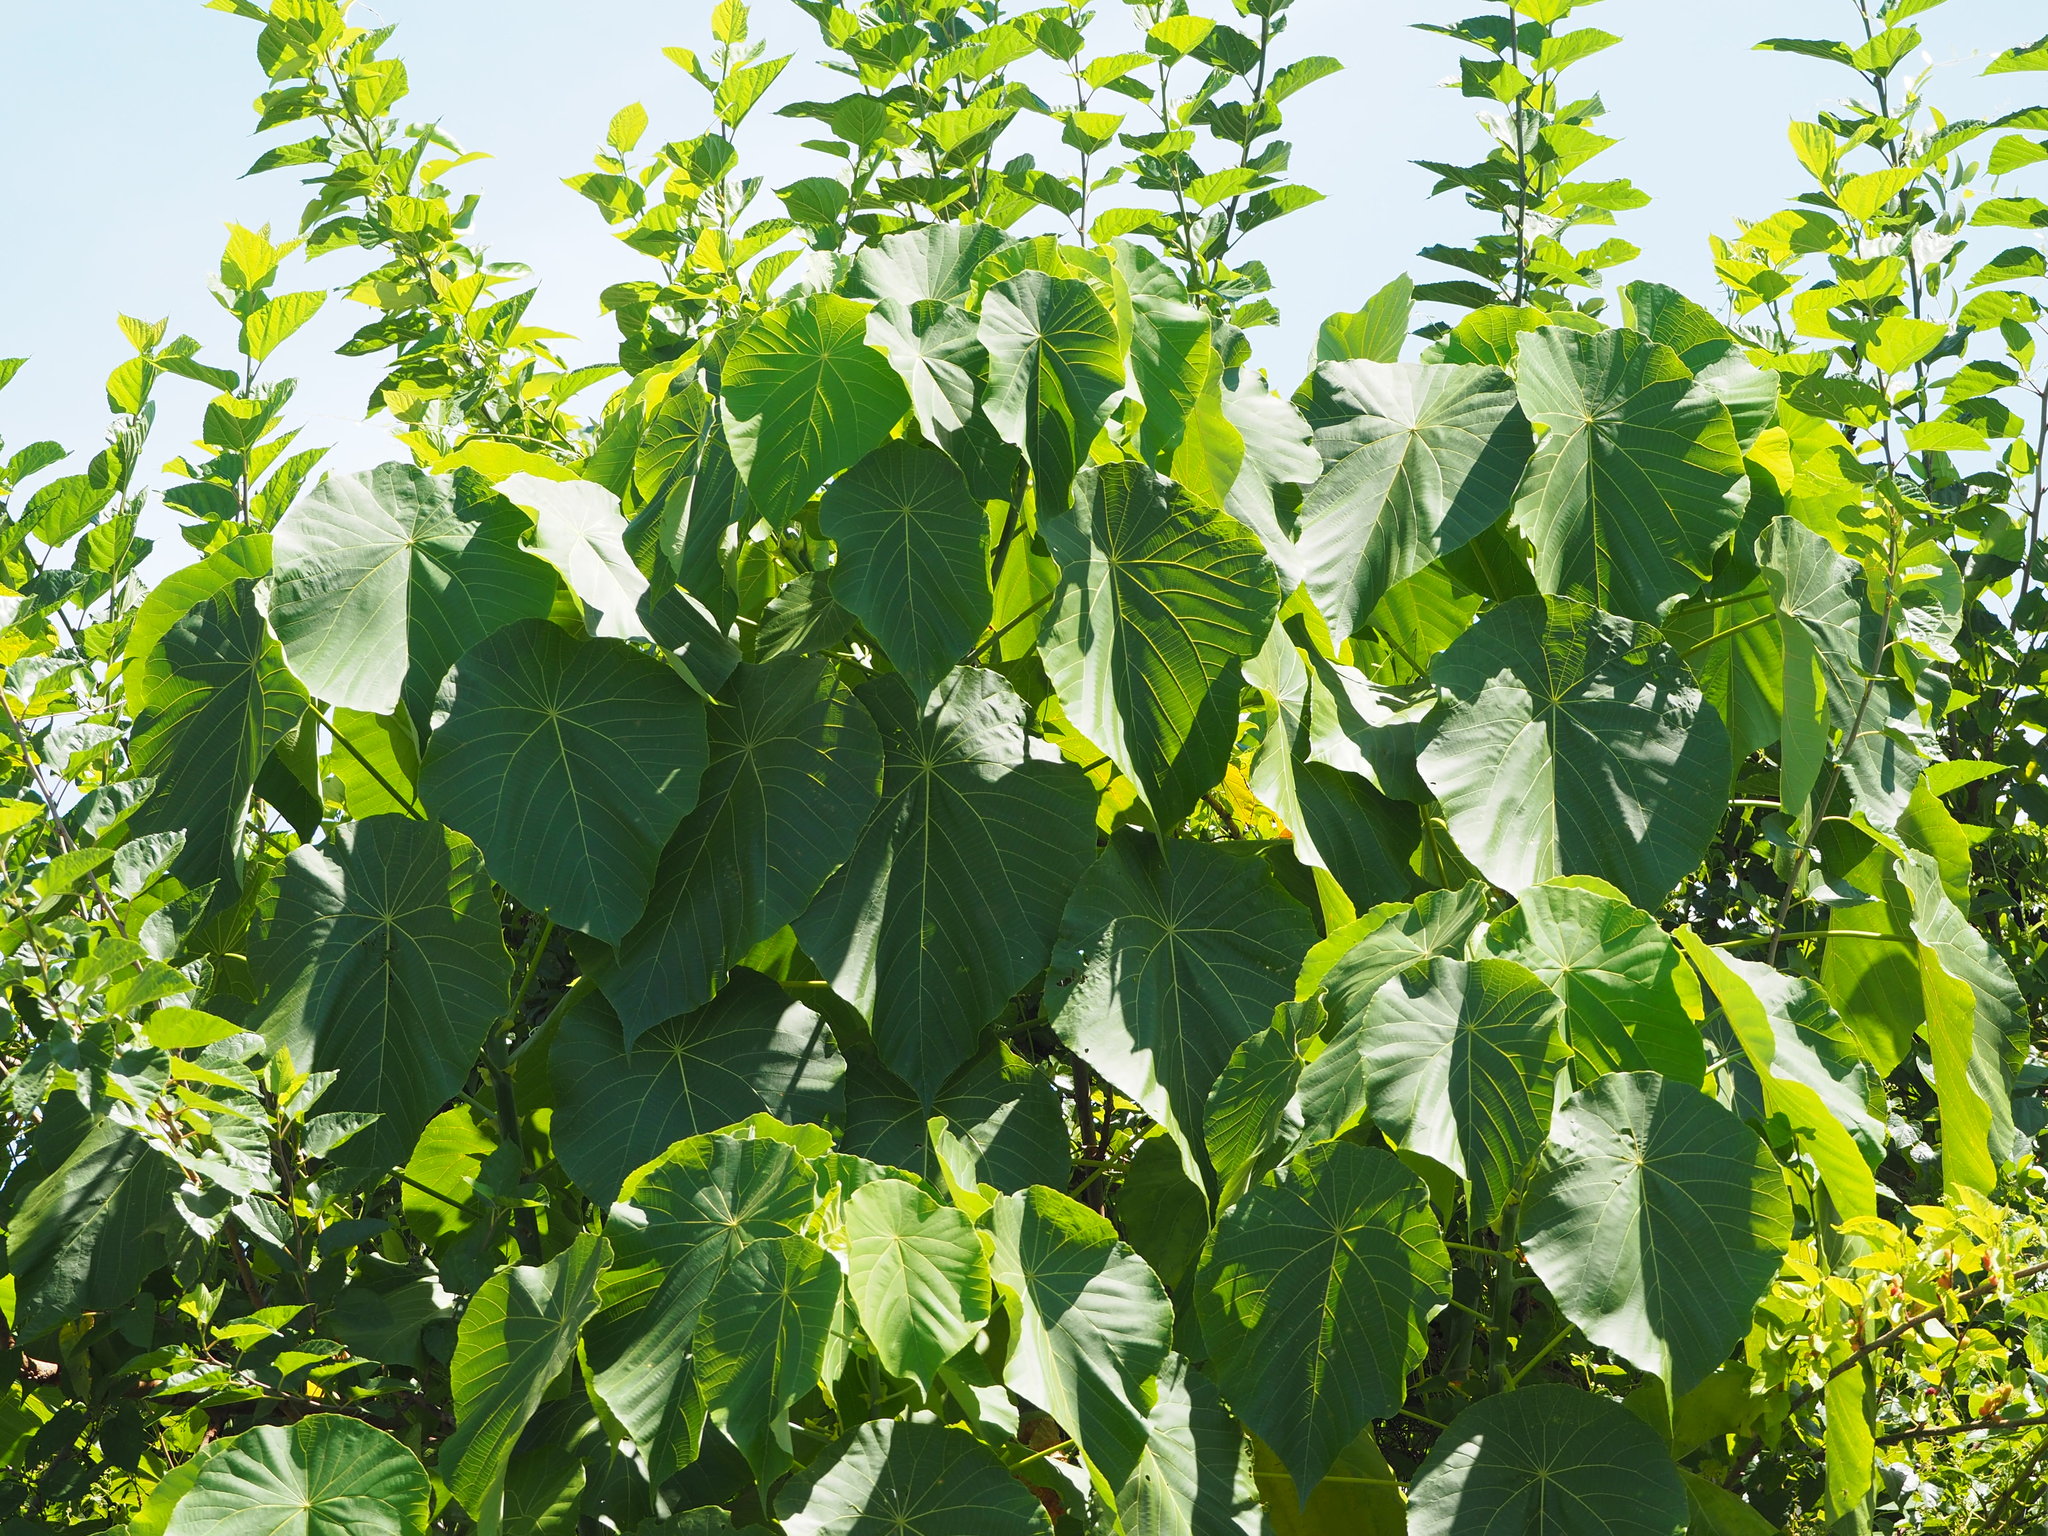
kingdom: Plantae
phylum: Tracheophyta
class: Magnoliopsida
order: Malpighiales
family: Euphorbiaceae
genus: Macaranga
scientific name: Macaranga tanarius
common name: Parasol leaf tree
